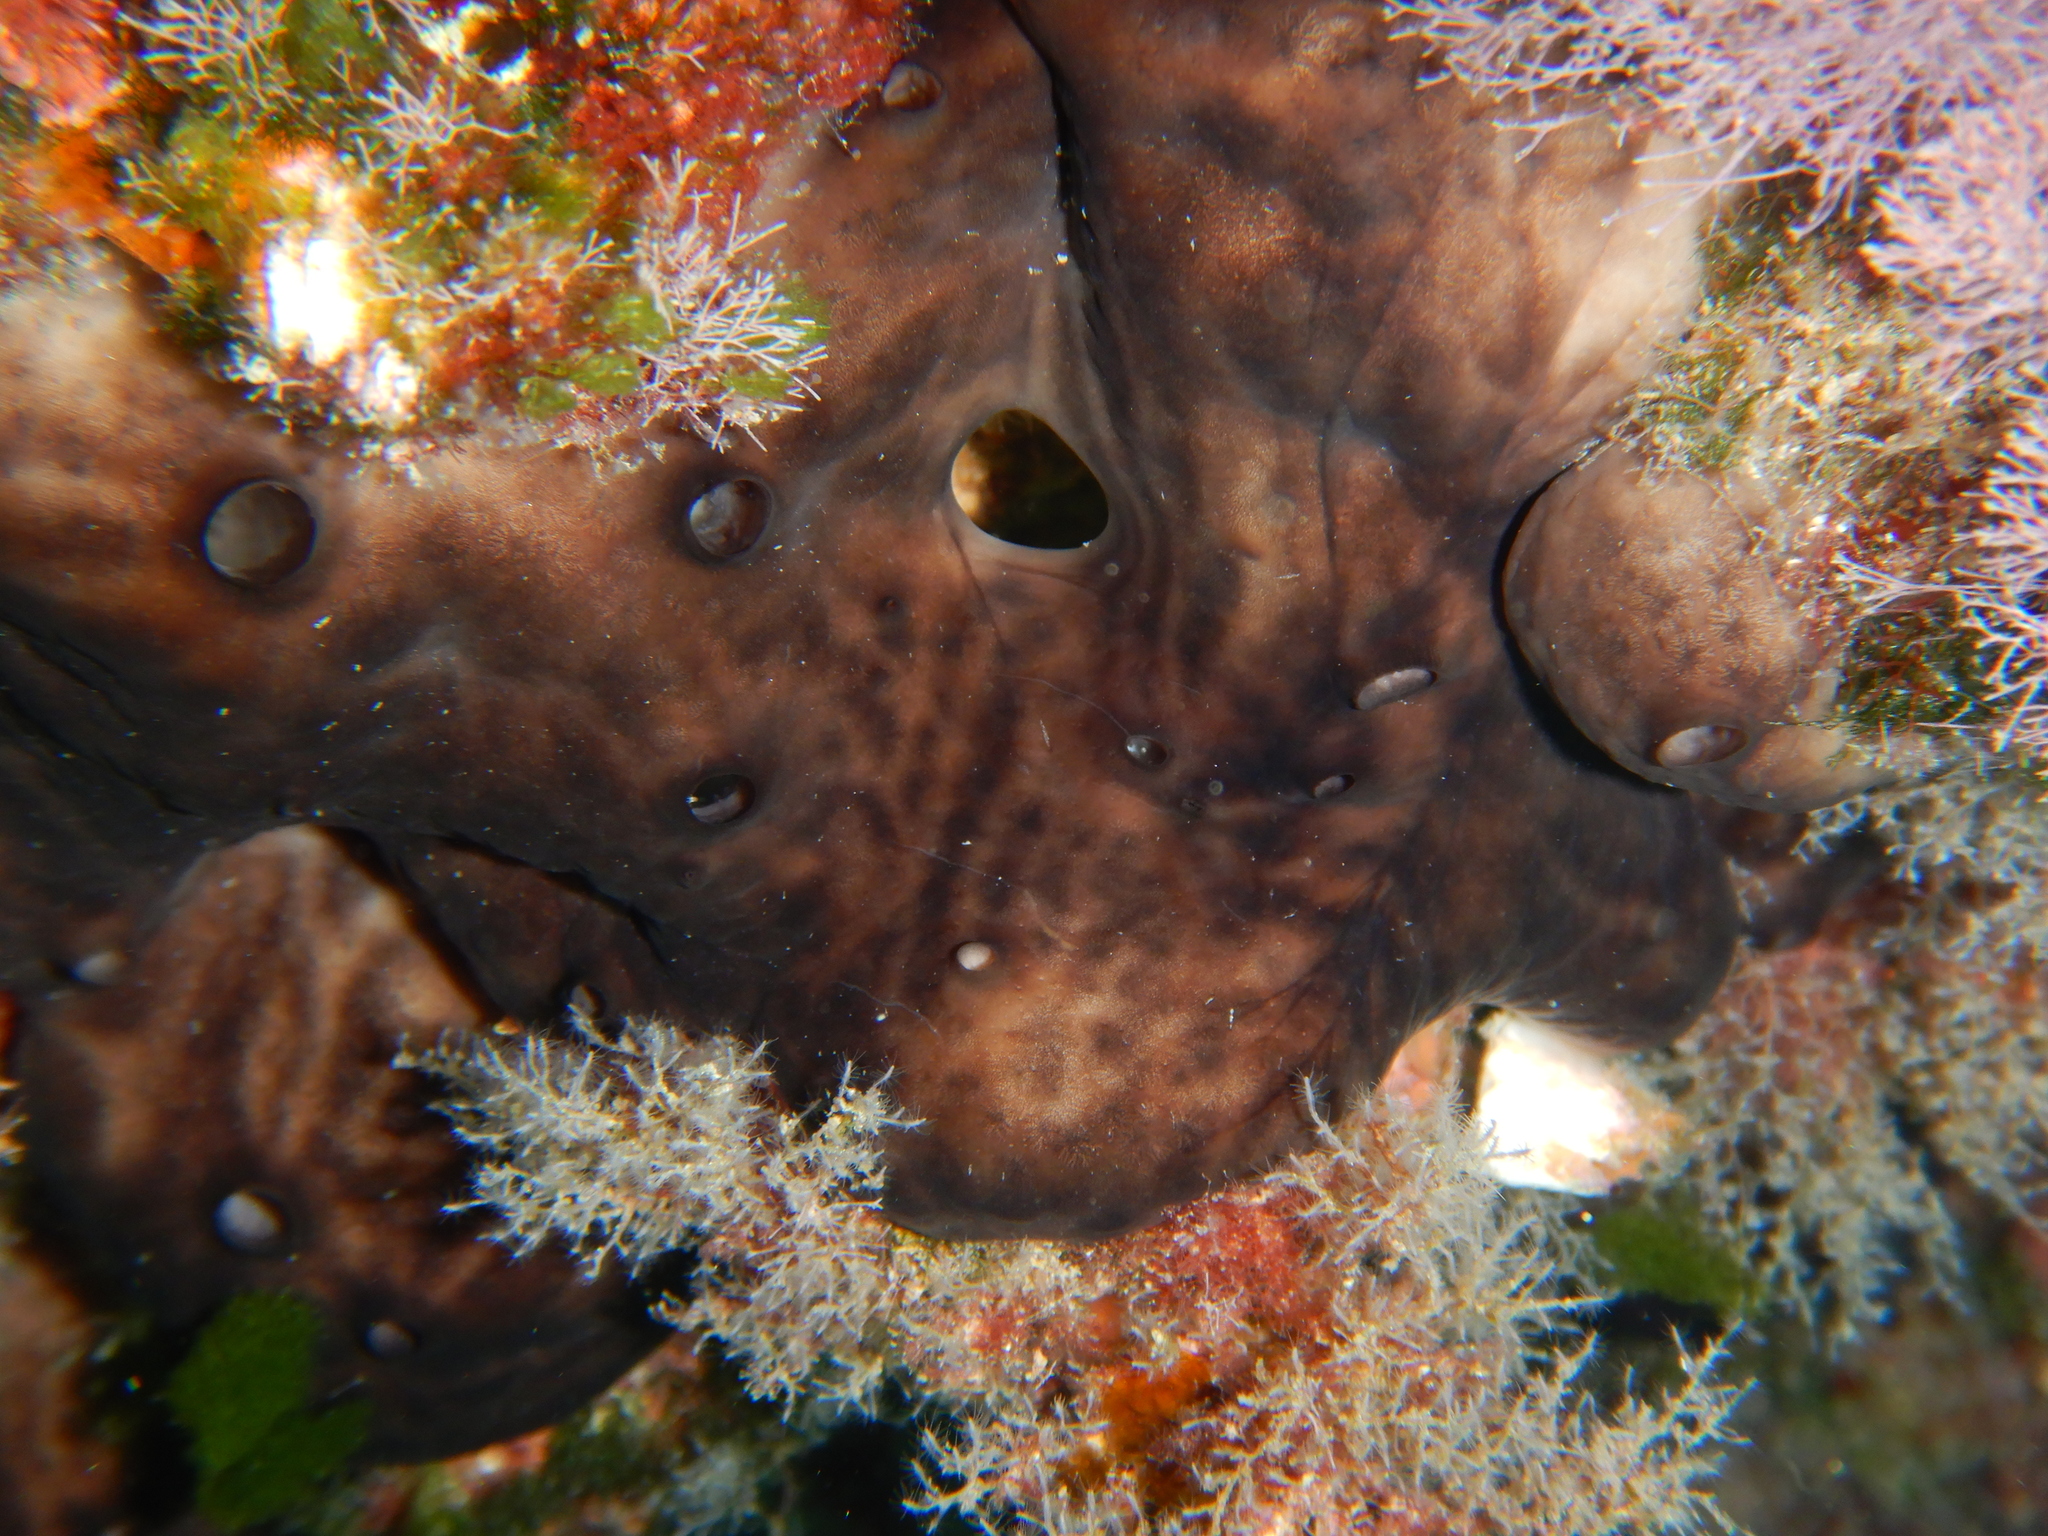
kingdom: Animalia
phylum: Porifera
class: Demospongiae
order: Chondrosiida
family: Chondrosiidae
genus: Chondrosia
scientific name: Chondrosia reniformis
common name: Chicken liver sponge
